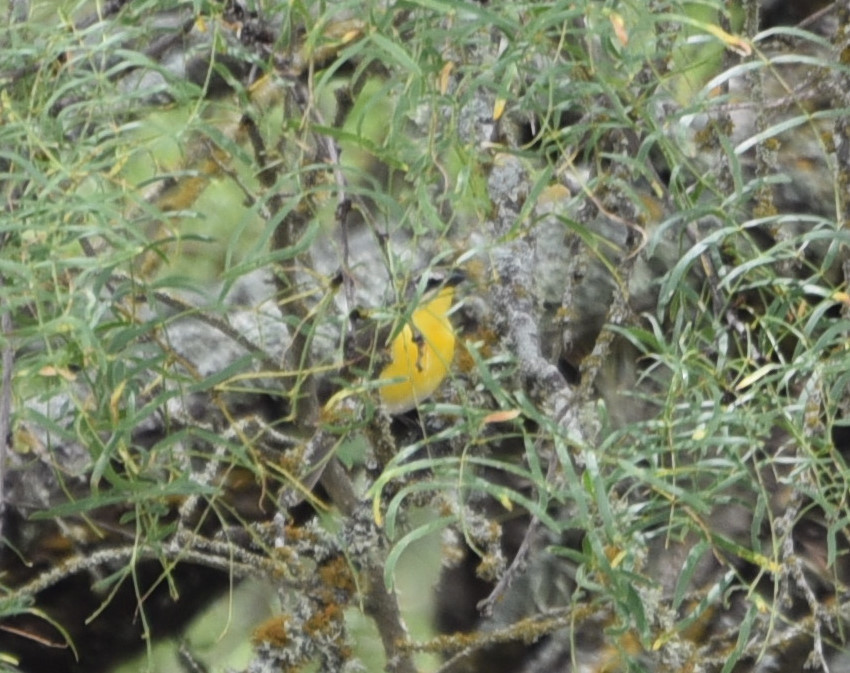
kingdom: Animalia
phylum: Chordata
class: Aves
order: Passeriformes
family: Parulidae
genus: Icteria
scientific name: Icteria virens
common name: Yellow-breasted chat
